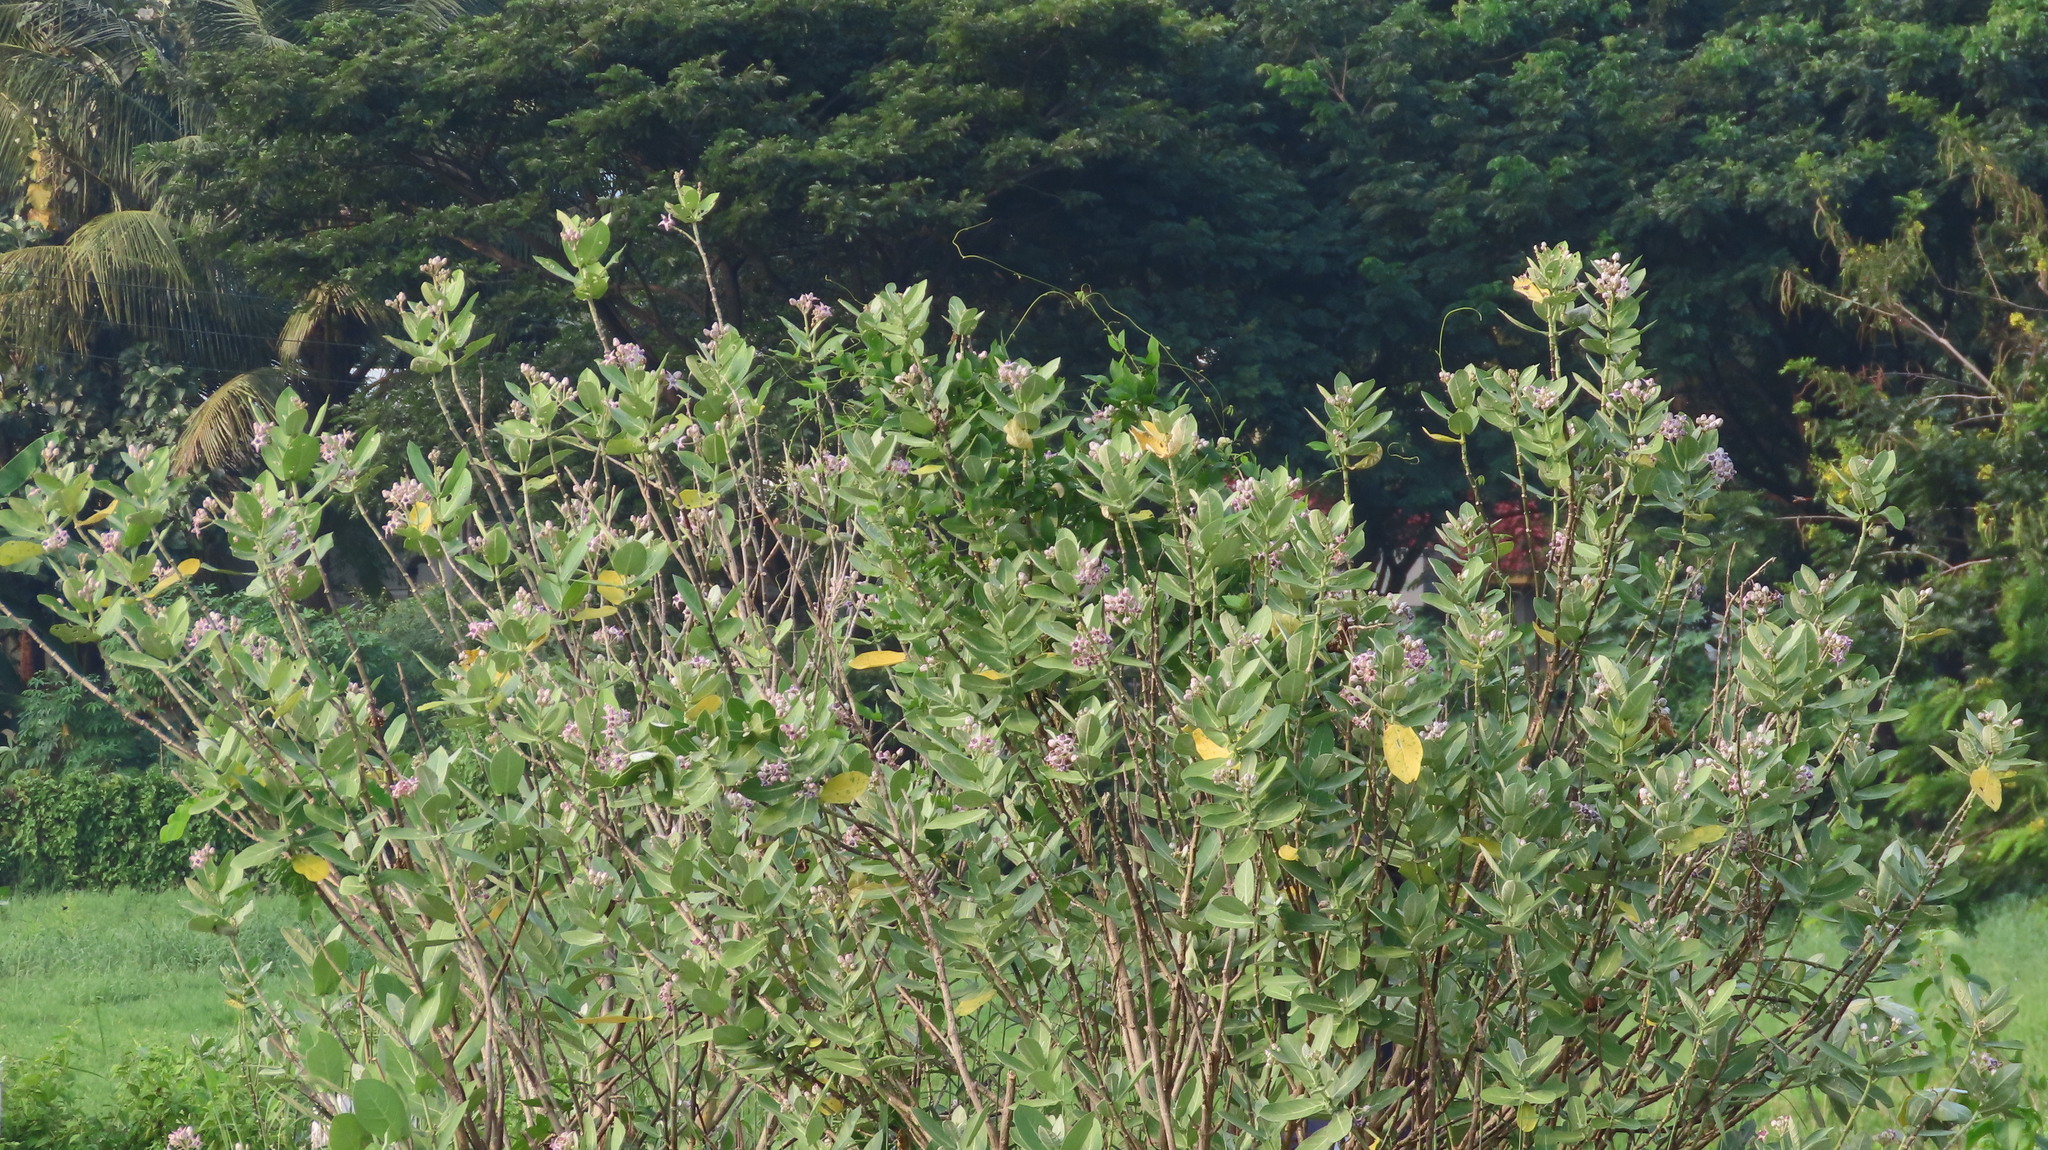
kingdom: Plantae
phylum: Tracheophyta
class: Magnoliopsida
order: Gentianales
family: Apocynaceae
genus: Calotropis
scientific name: Calotropis gigantea
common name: Crown flower
